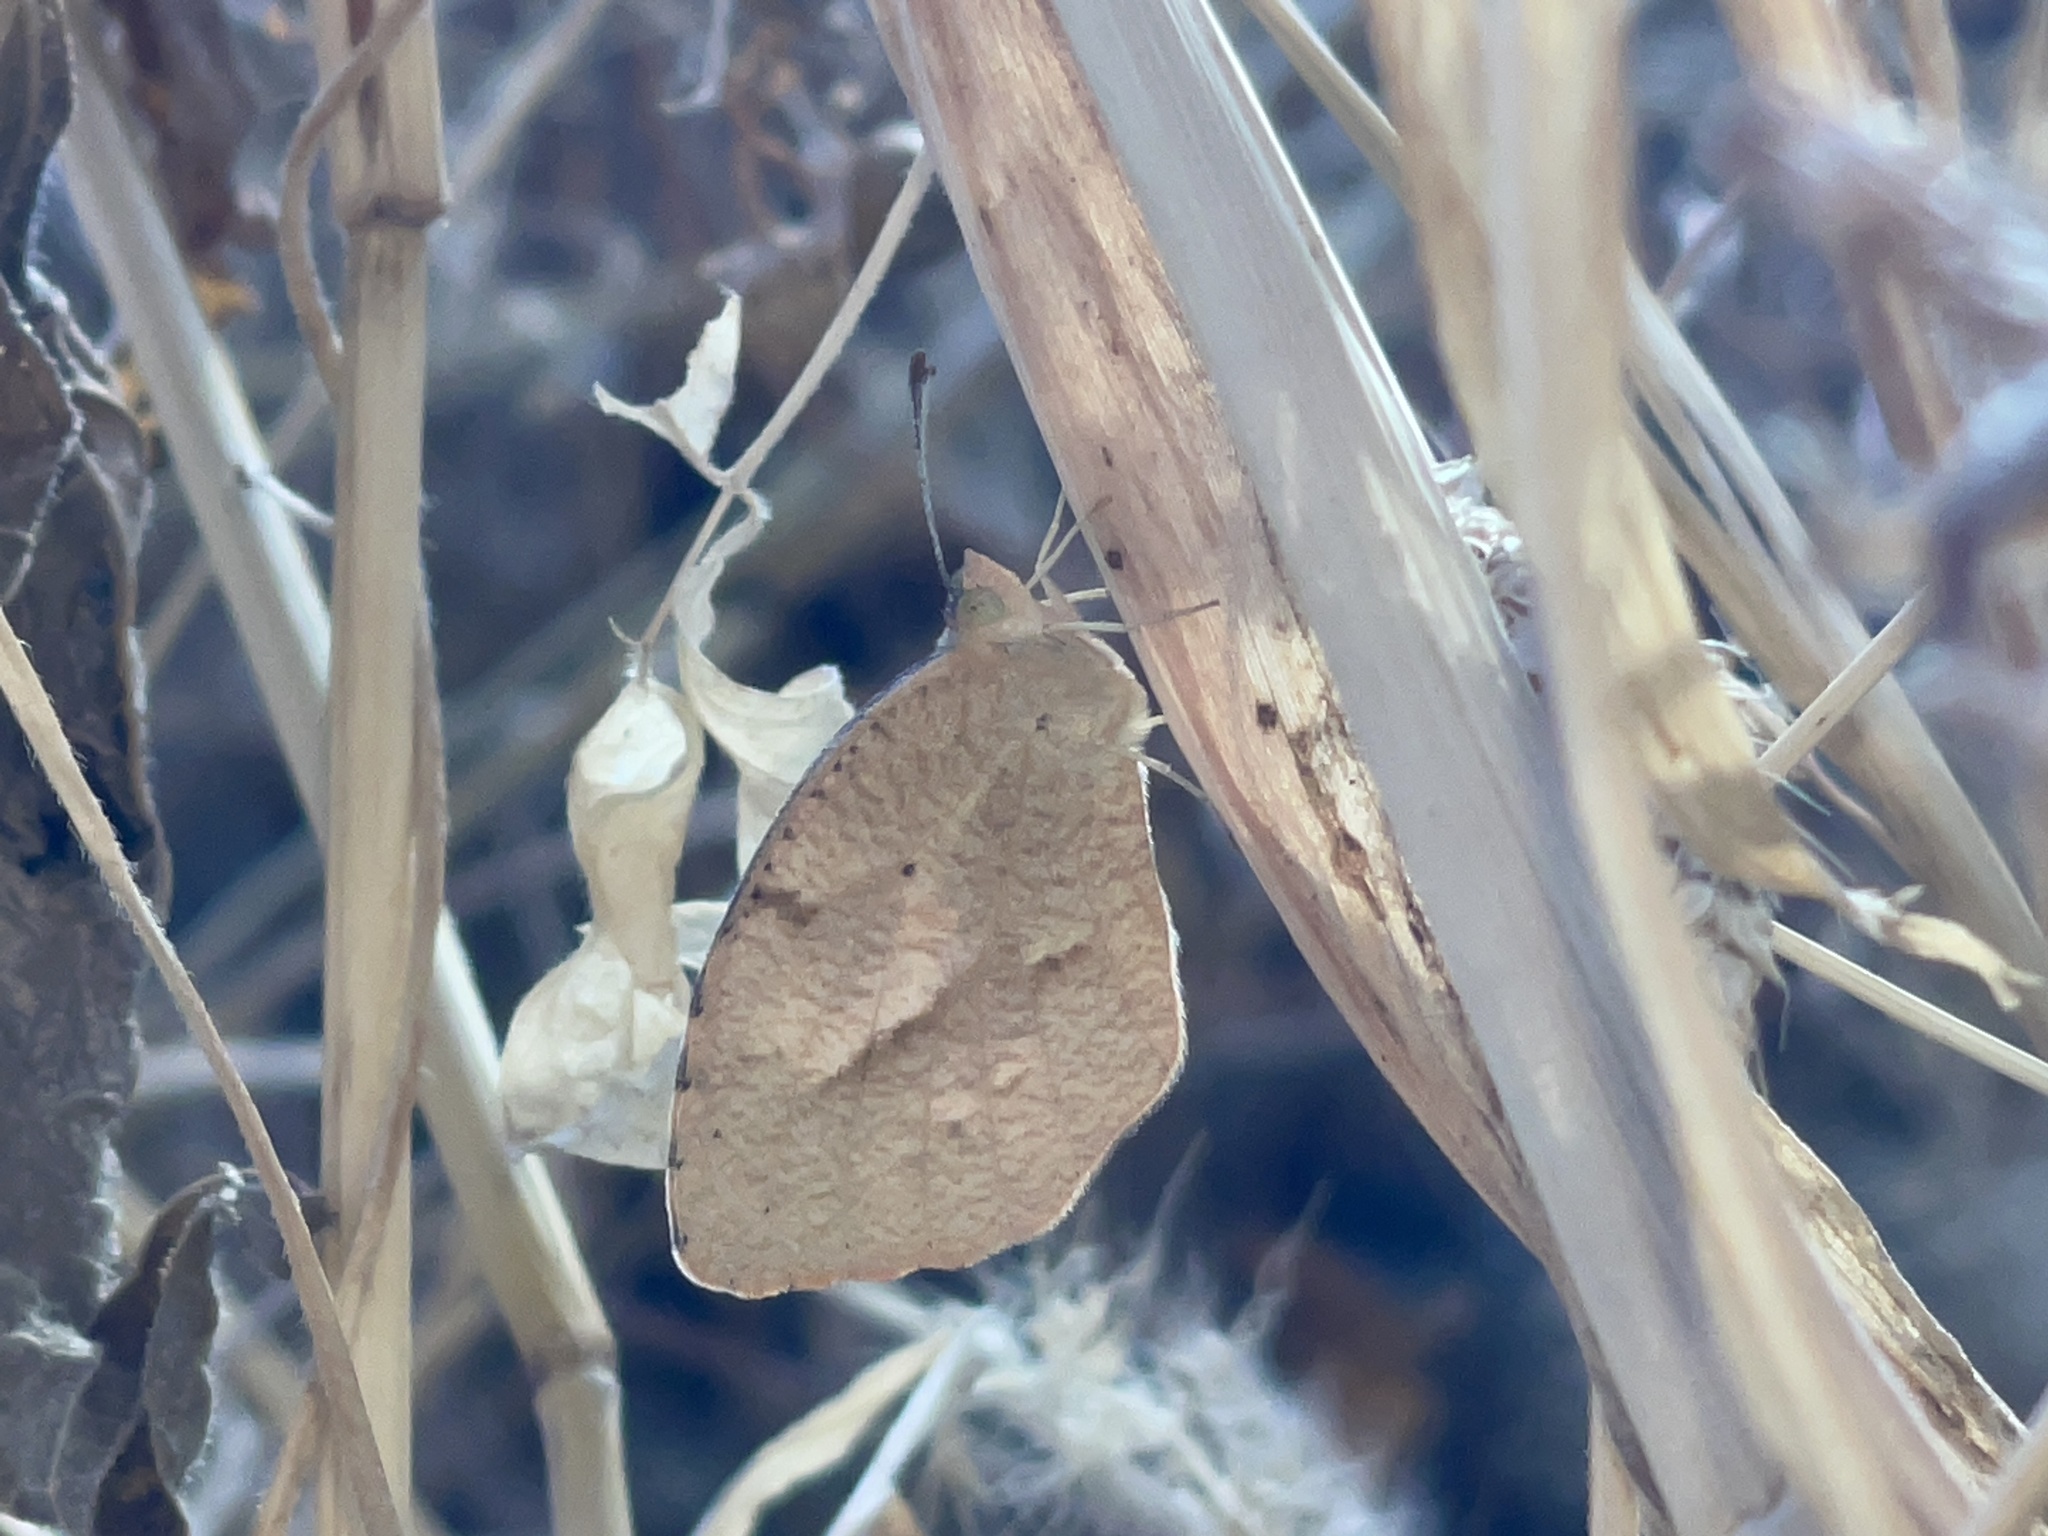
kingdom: Animalia
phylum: Arthropoda
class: Insecta
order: Lepidoptera
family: Pieridae
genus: Abaeis
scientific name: Abaeis nicippe
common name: Sleepy orange
